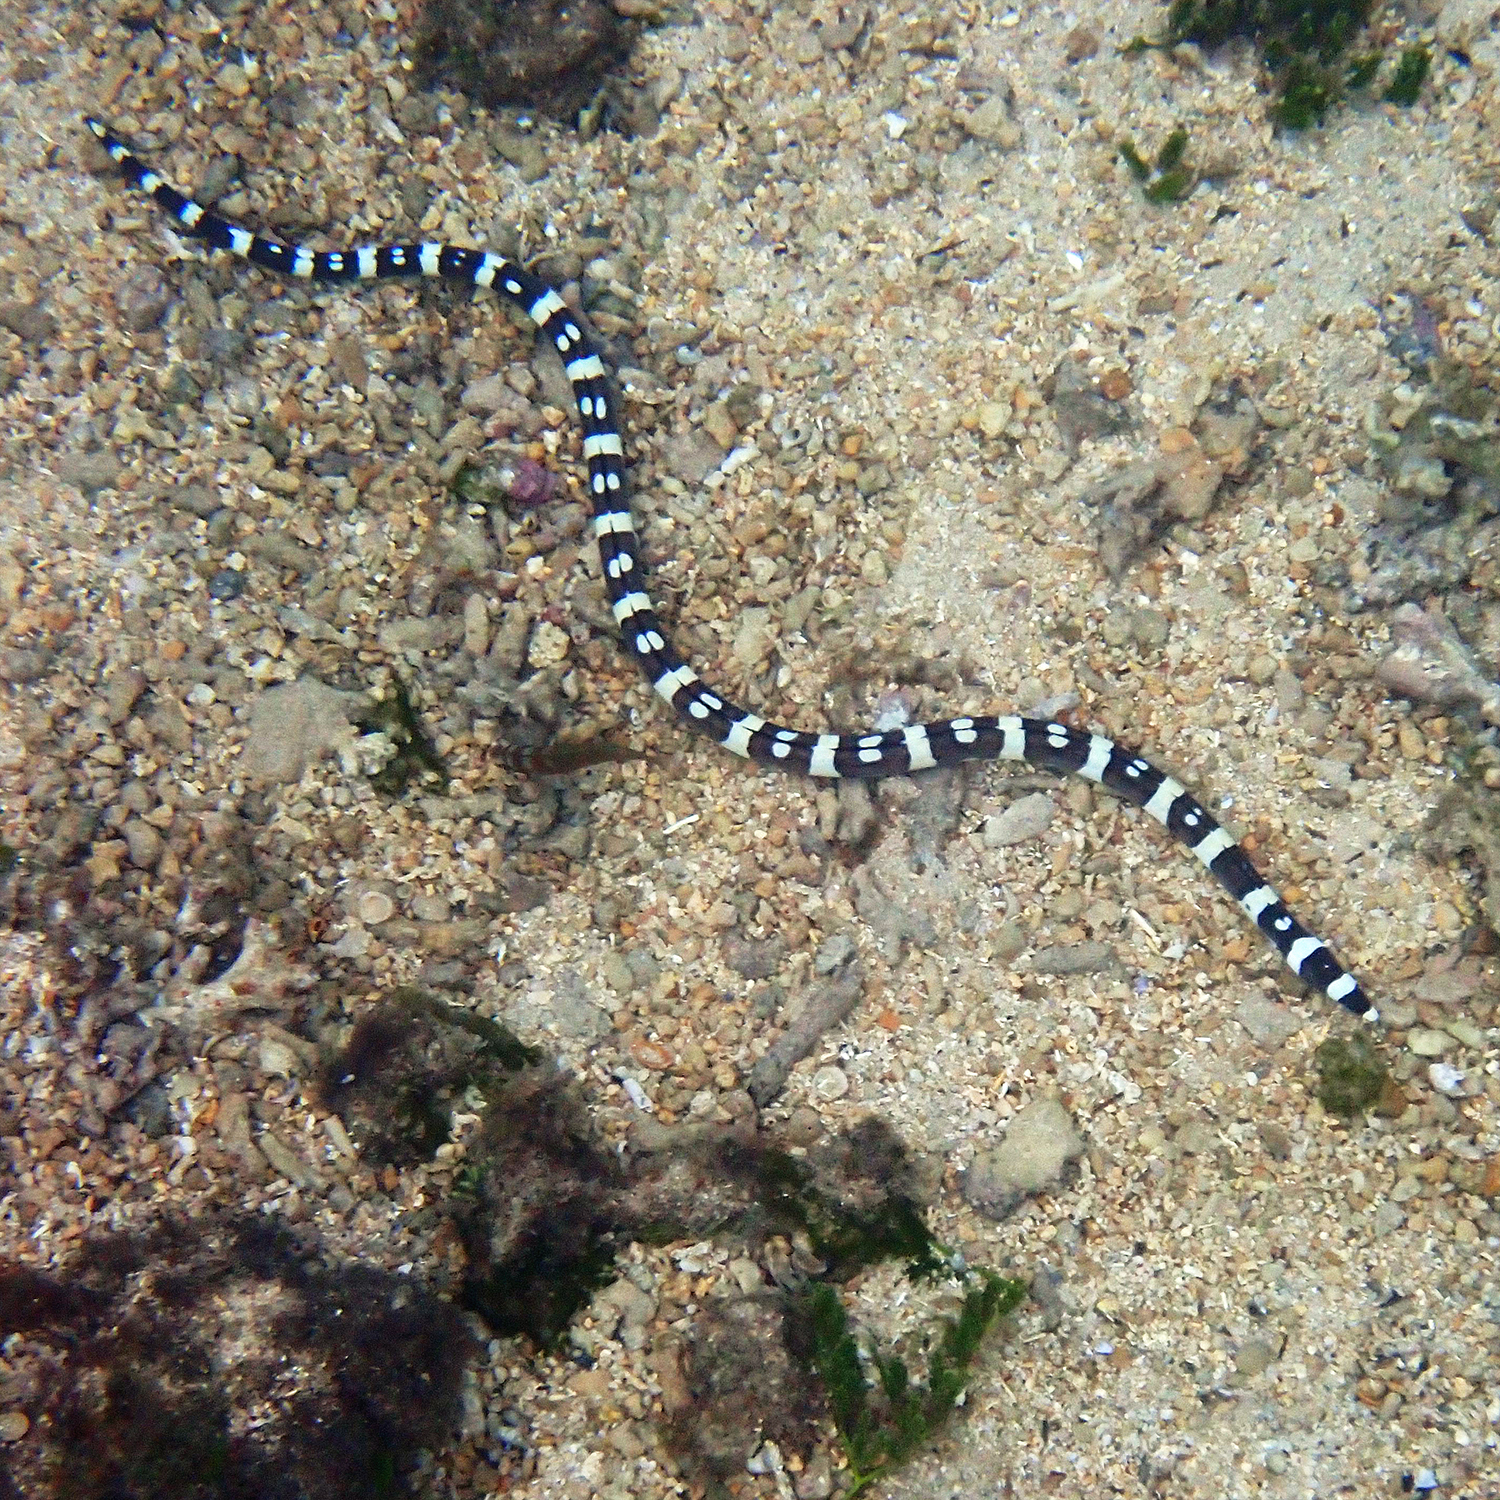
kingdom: Animalia
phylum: Chordata
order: Anguilliformes
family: Ophichthidae
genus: Leiuranus
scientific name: Leiuranus versicolor
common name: Convict snake eel
